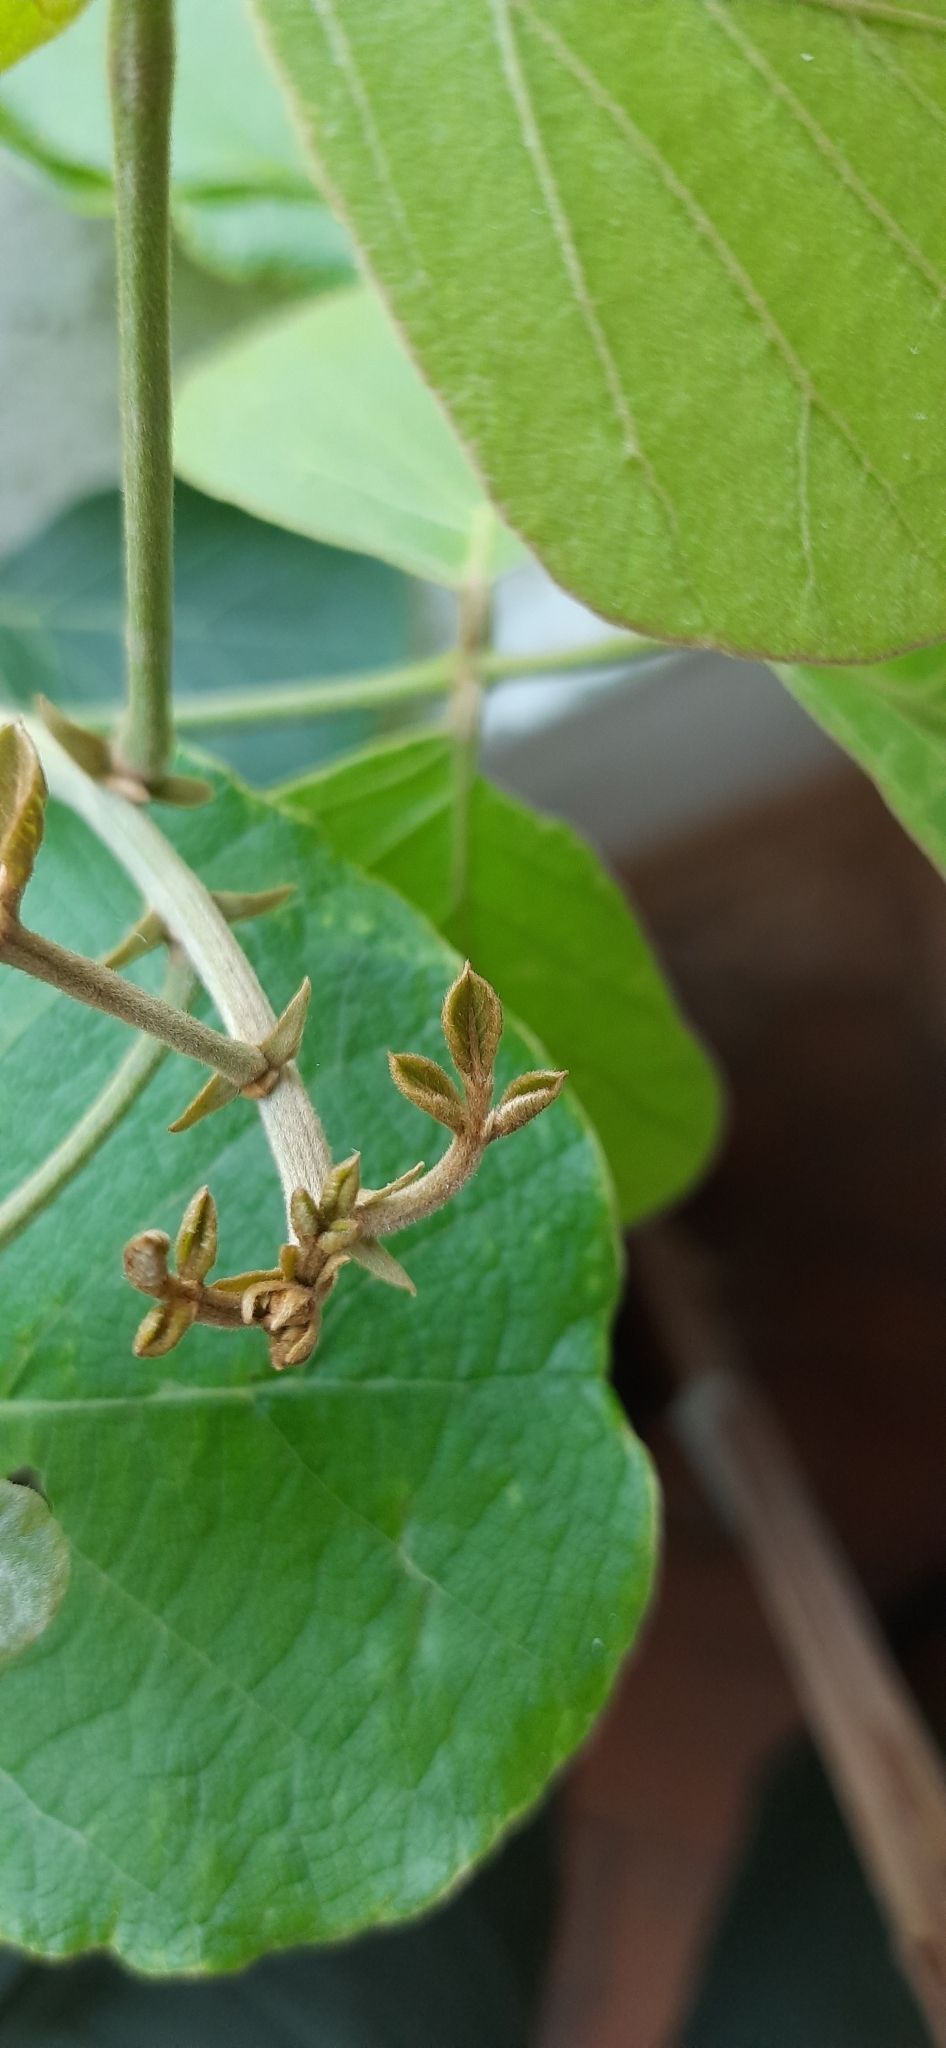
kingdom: Plantae
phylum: Tracheophyta
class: Magnoliopsida
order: Fabales
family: Fabaceae
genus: Butea
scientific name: Butea monosperma
